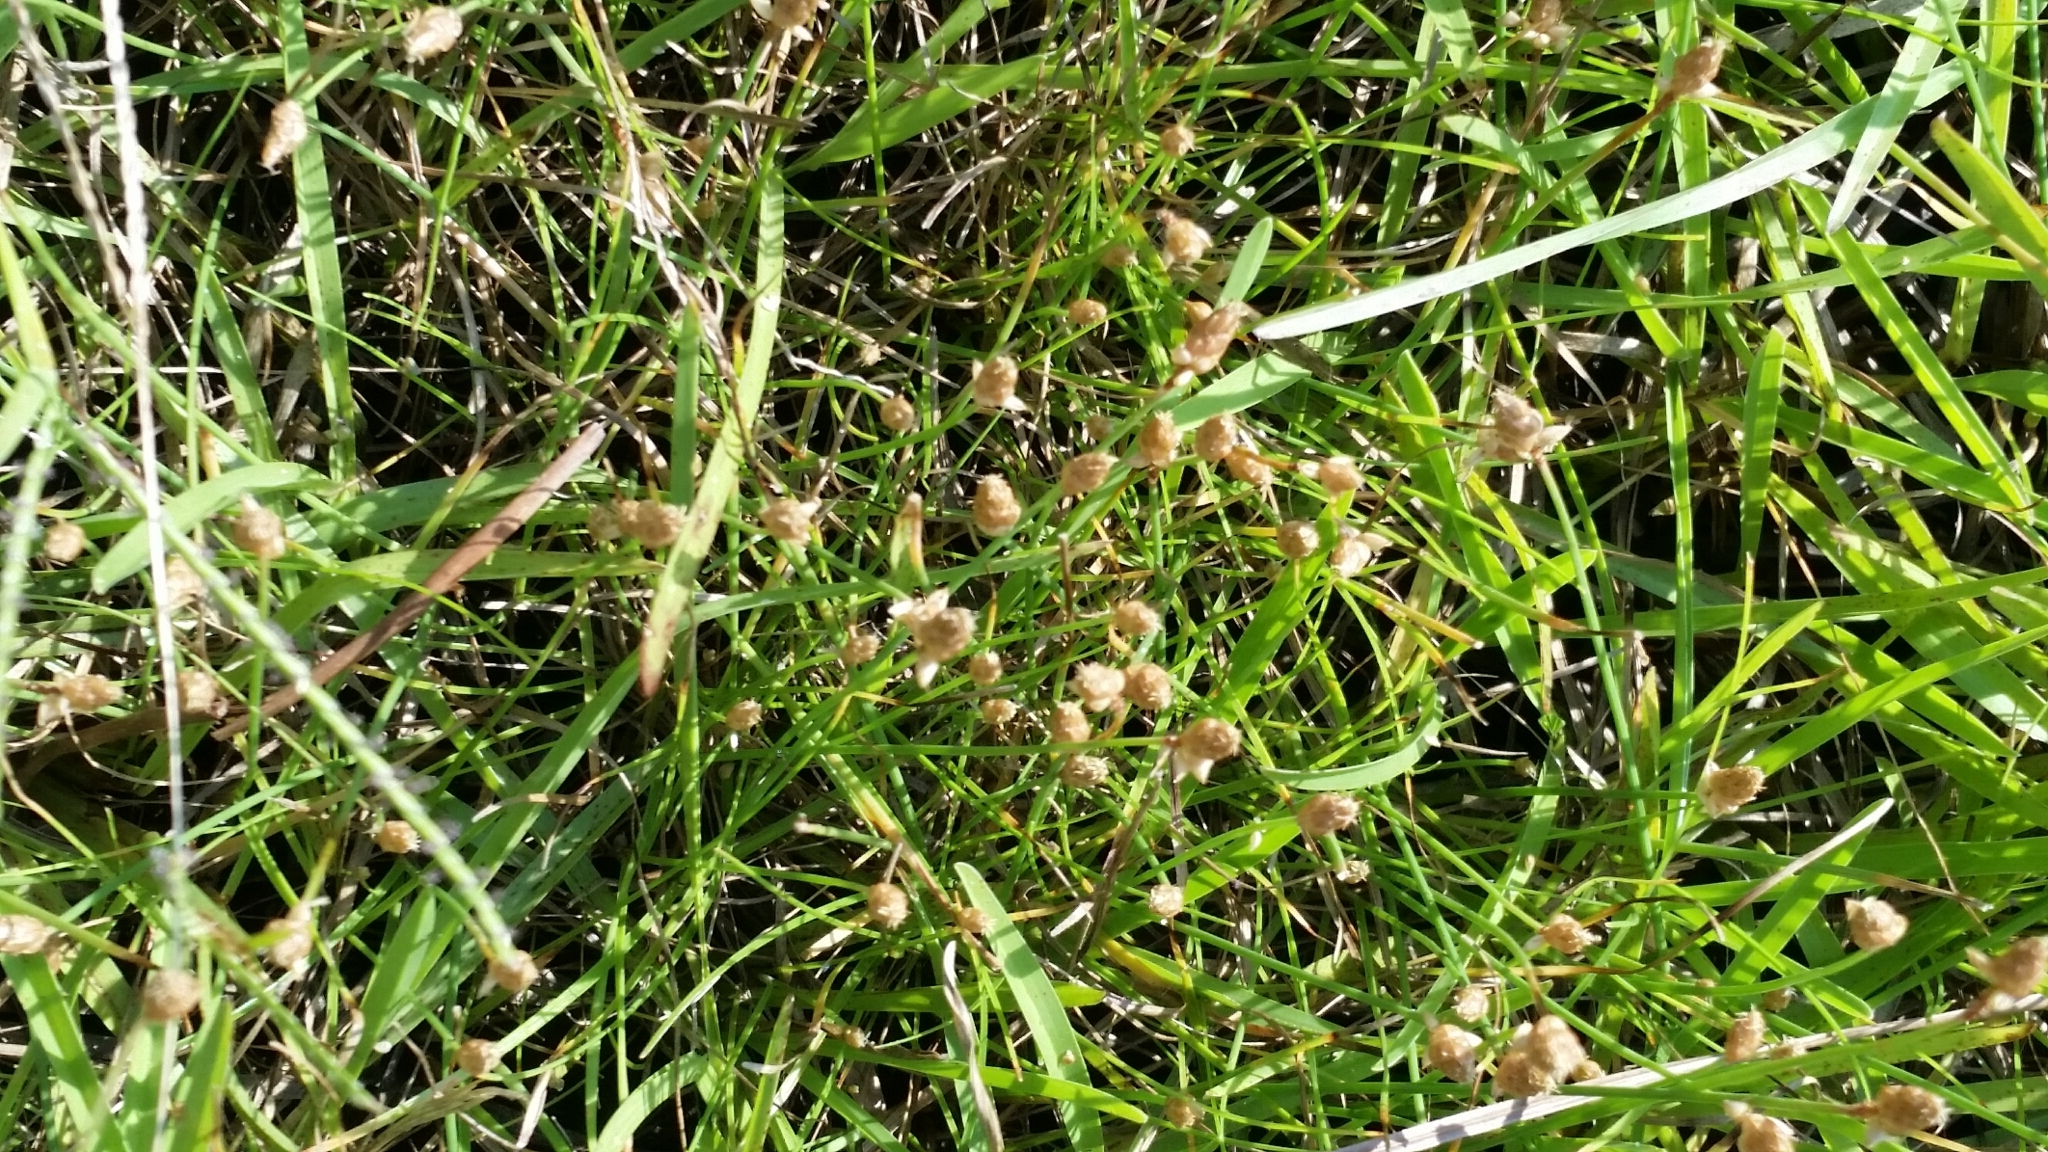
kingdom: Plantae
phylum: Tracheophyta
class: Liliopsida
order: Poales
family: Cyperaceae
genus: Fimbristylis
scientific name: Fimbristylis schoenoides
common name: Ditch fimbry
